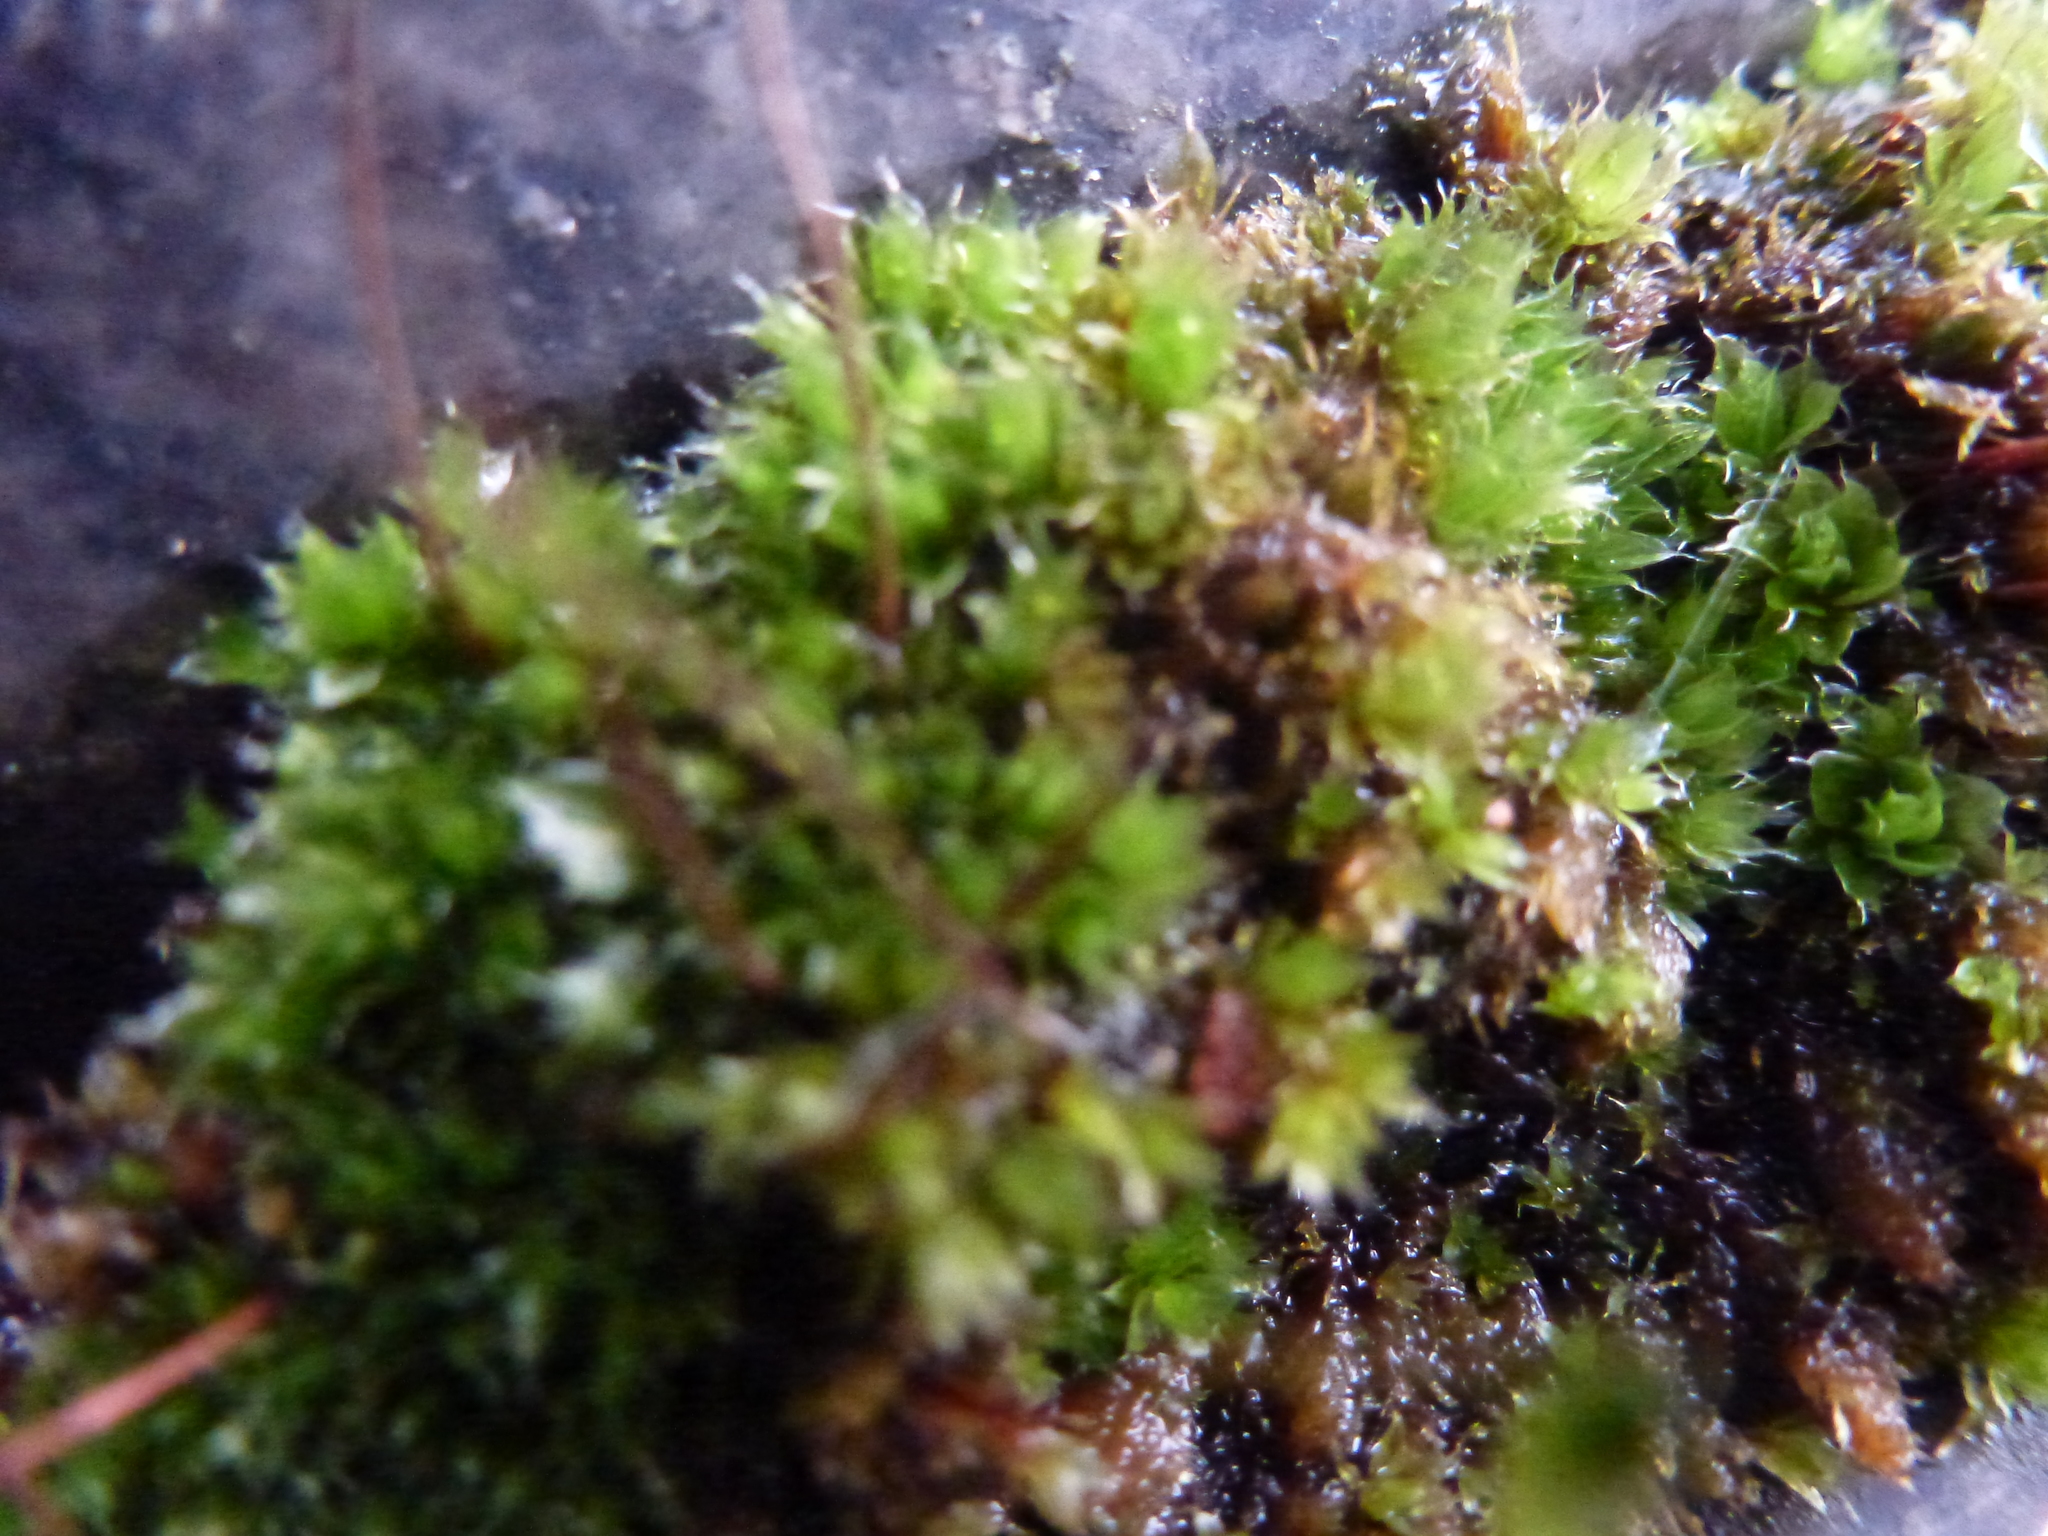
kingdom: Plantae
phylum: Bryophyta
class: Bryopsida
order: Bryales
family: Bryaceae
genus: Rosulabryum
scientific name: Rosulabryum capillare
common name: Capillary thread-moss
